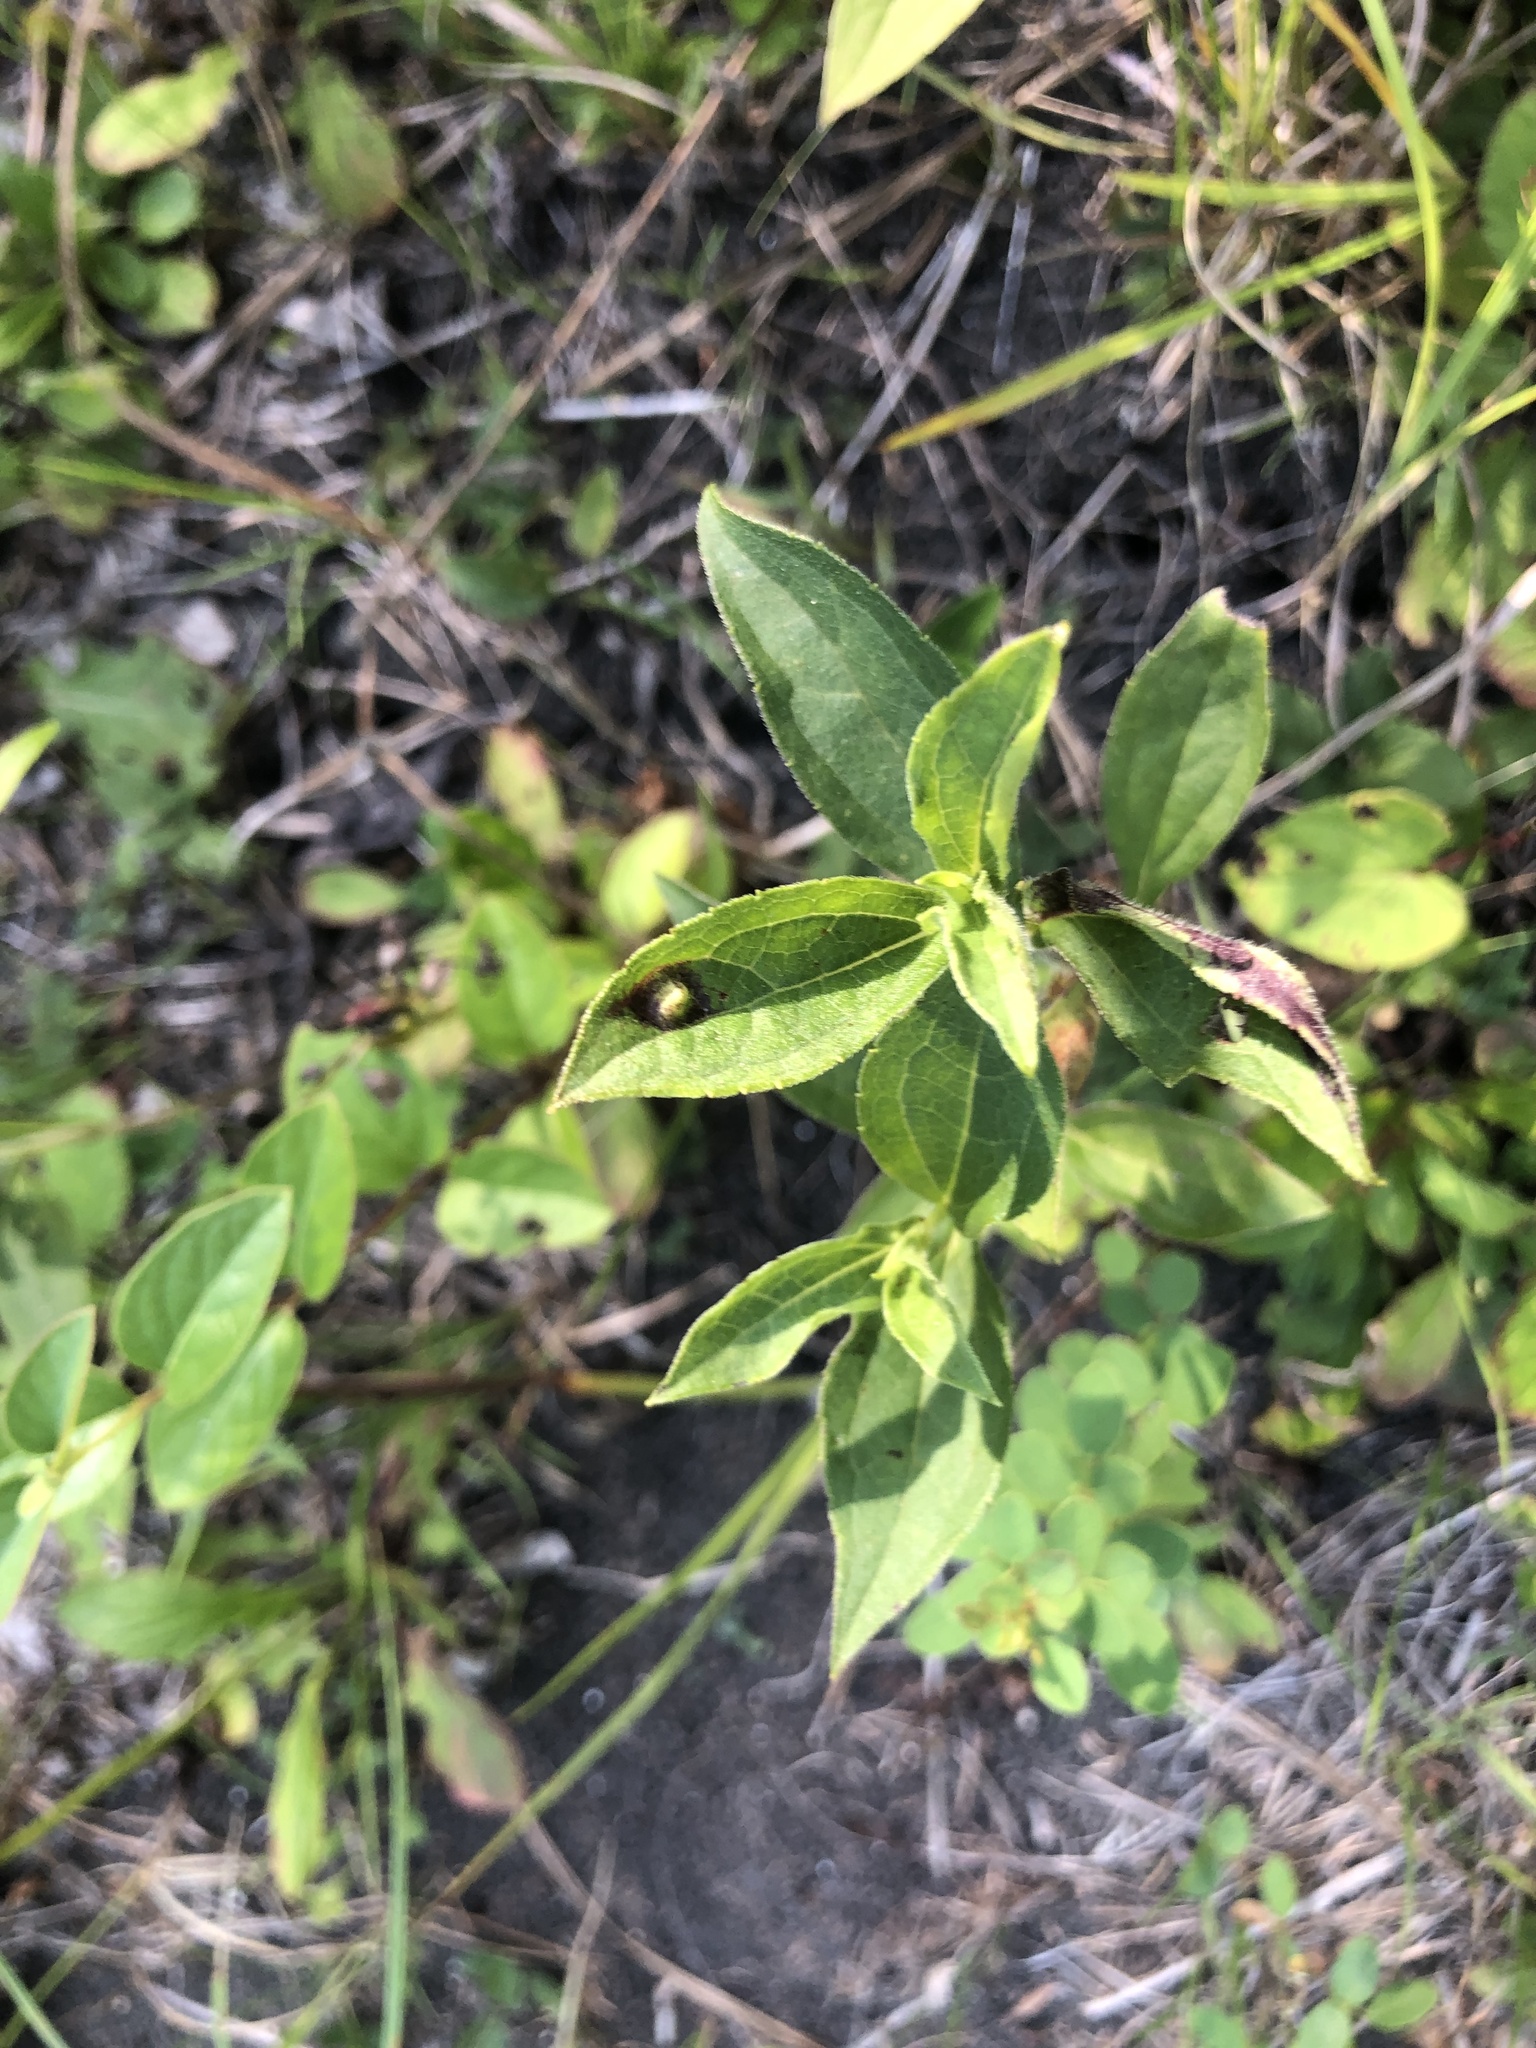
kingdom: Plantae
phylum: Tracheophyta
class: Magnoliopsida
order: Asterales
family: Asteraceae
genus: Rudbeckia
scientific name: Rudbeckia terranigrae
